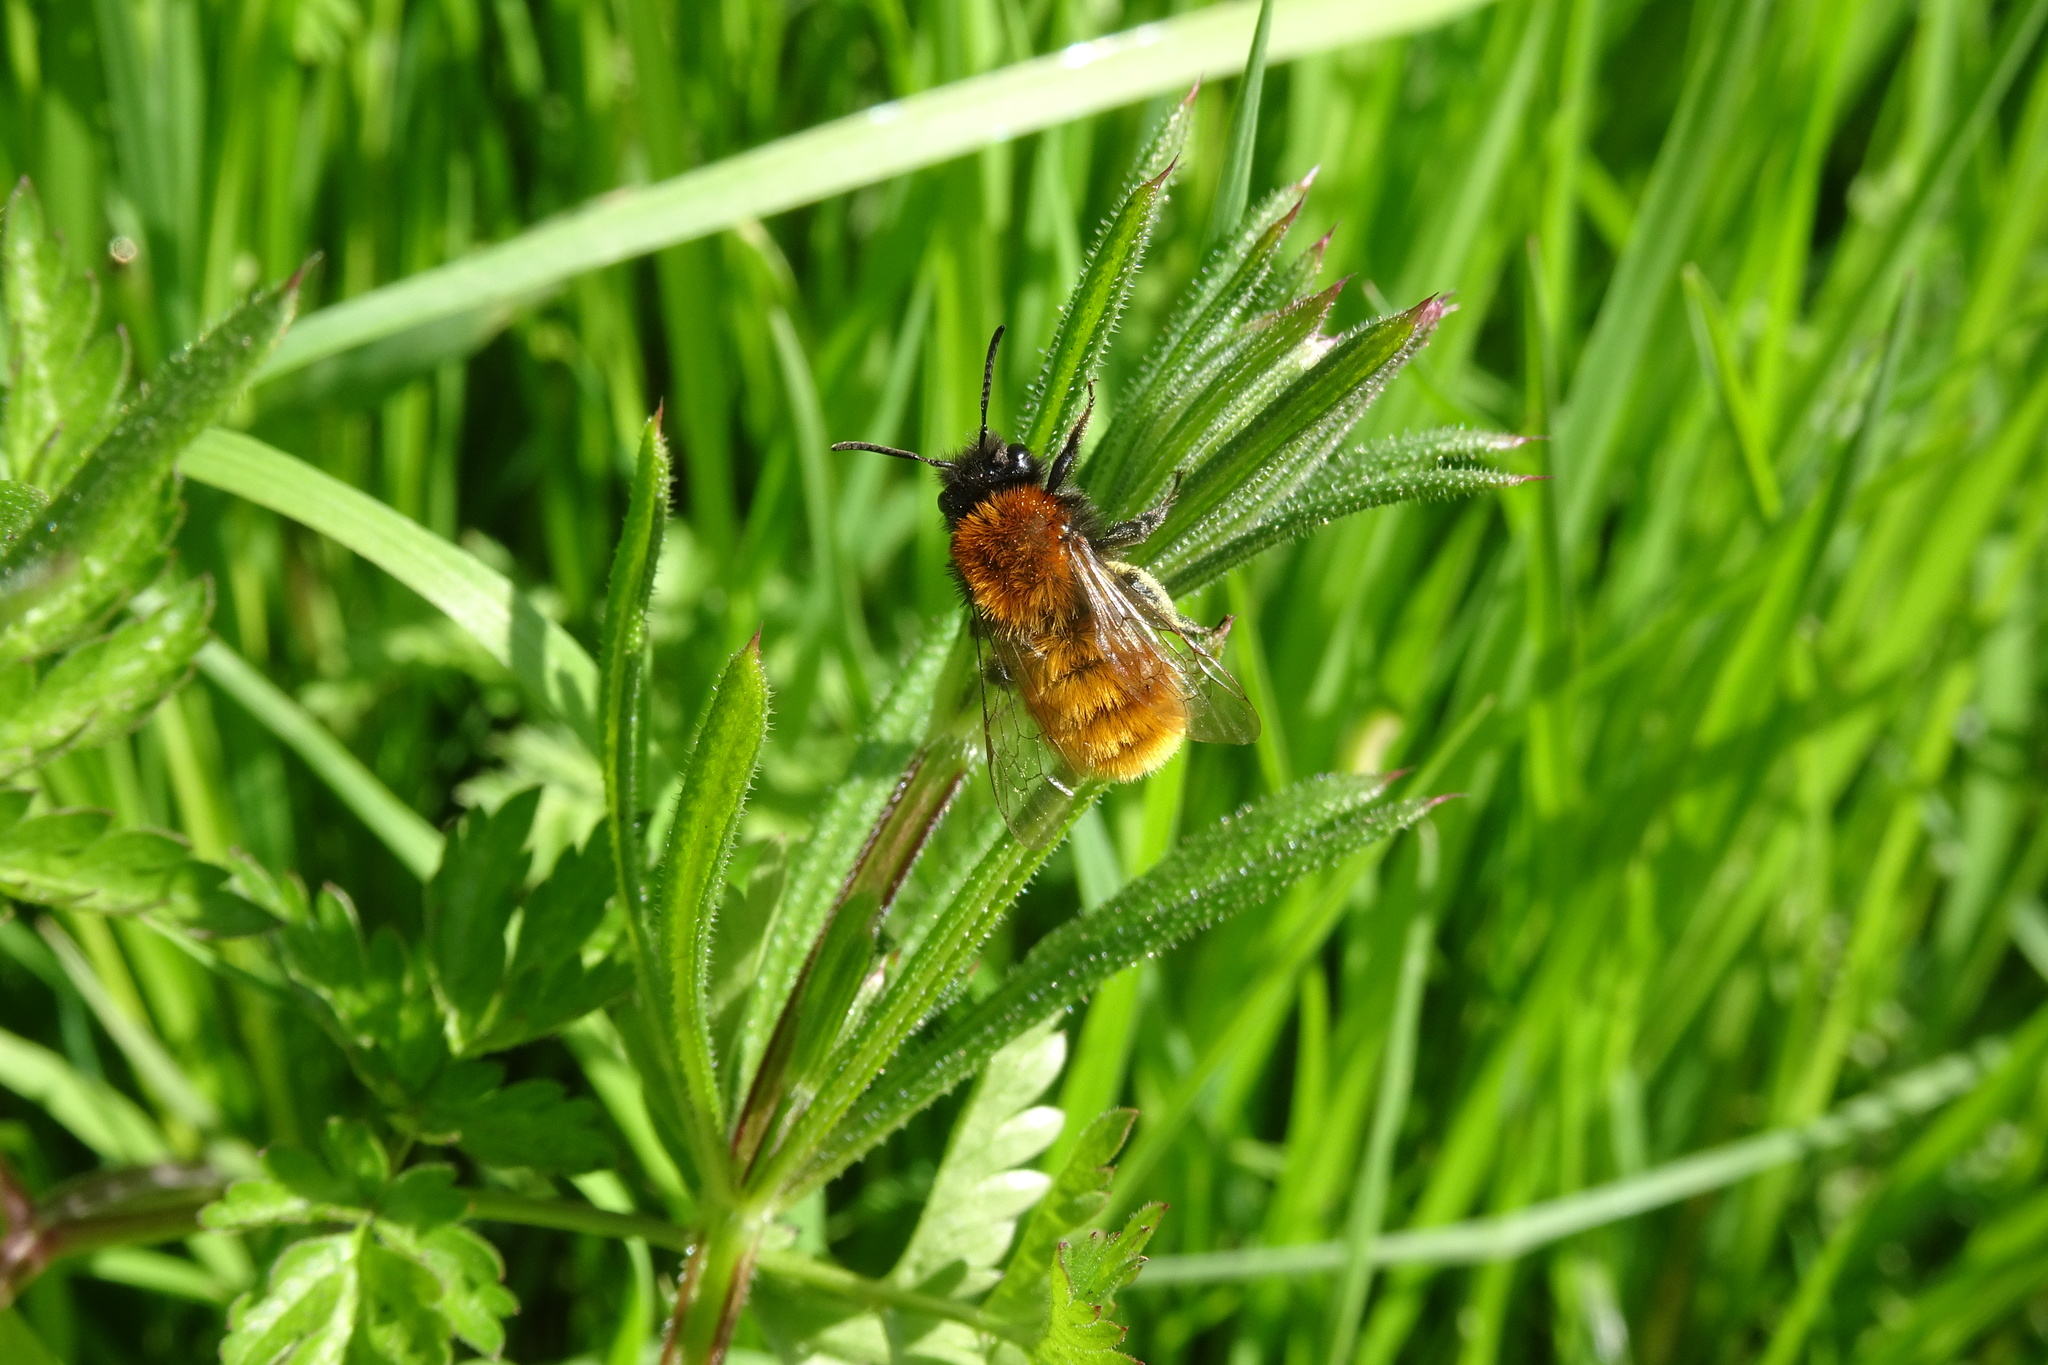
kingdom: Animalia
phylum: Arthropoda
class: Insecta
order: Hymenoptera
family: Andrenidae
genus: Andrena
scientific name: Andrena fulva
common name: Tawny mining bee
